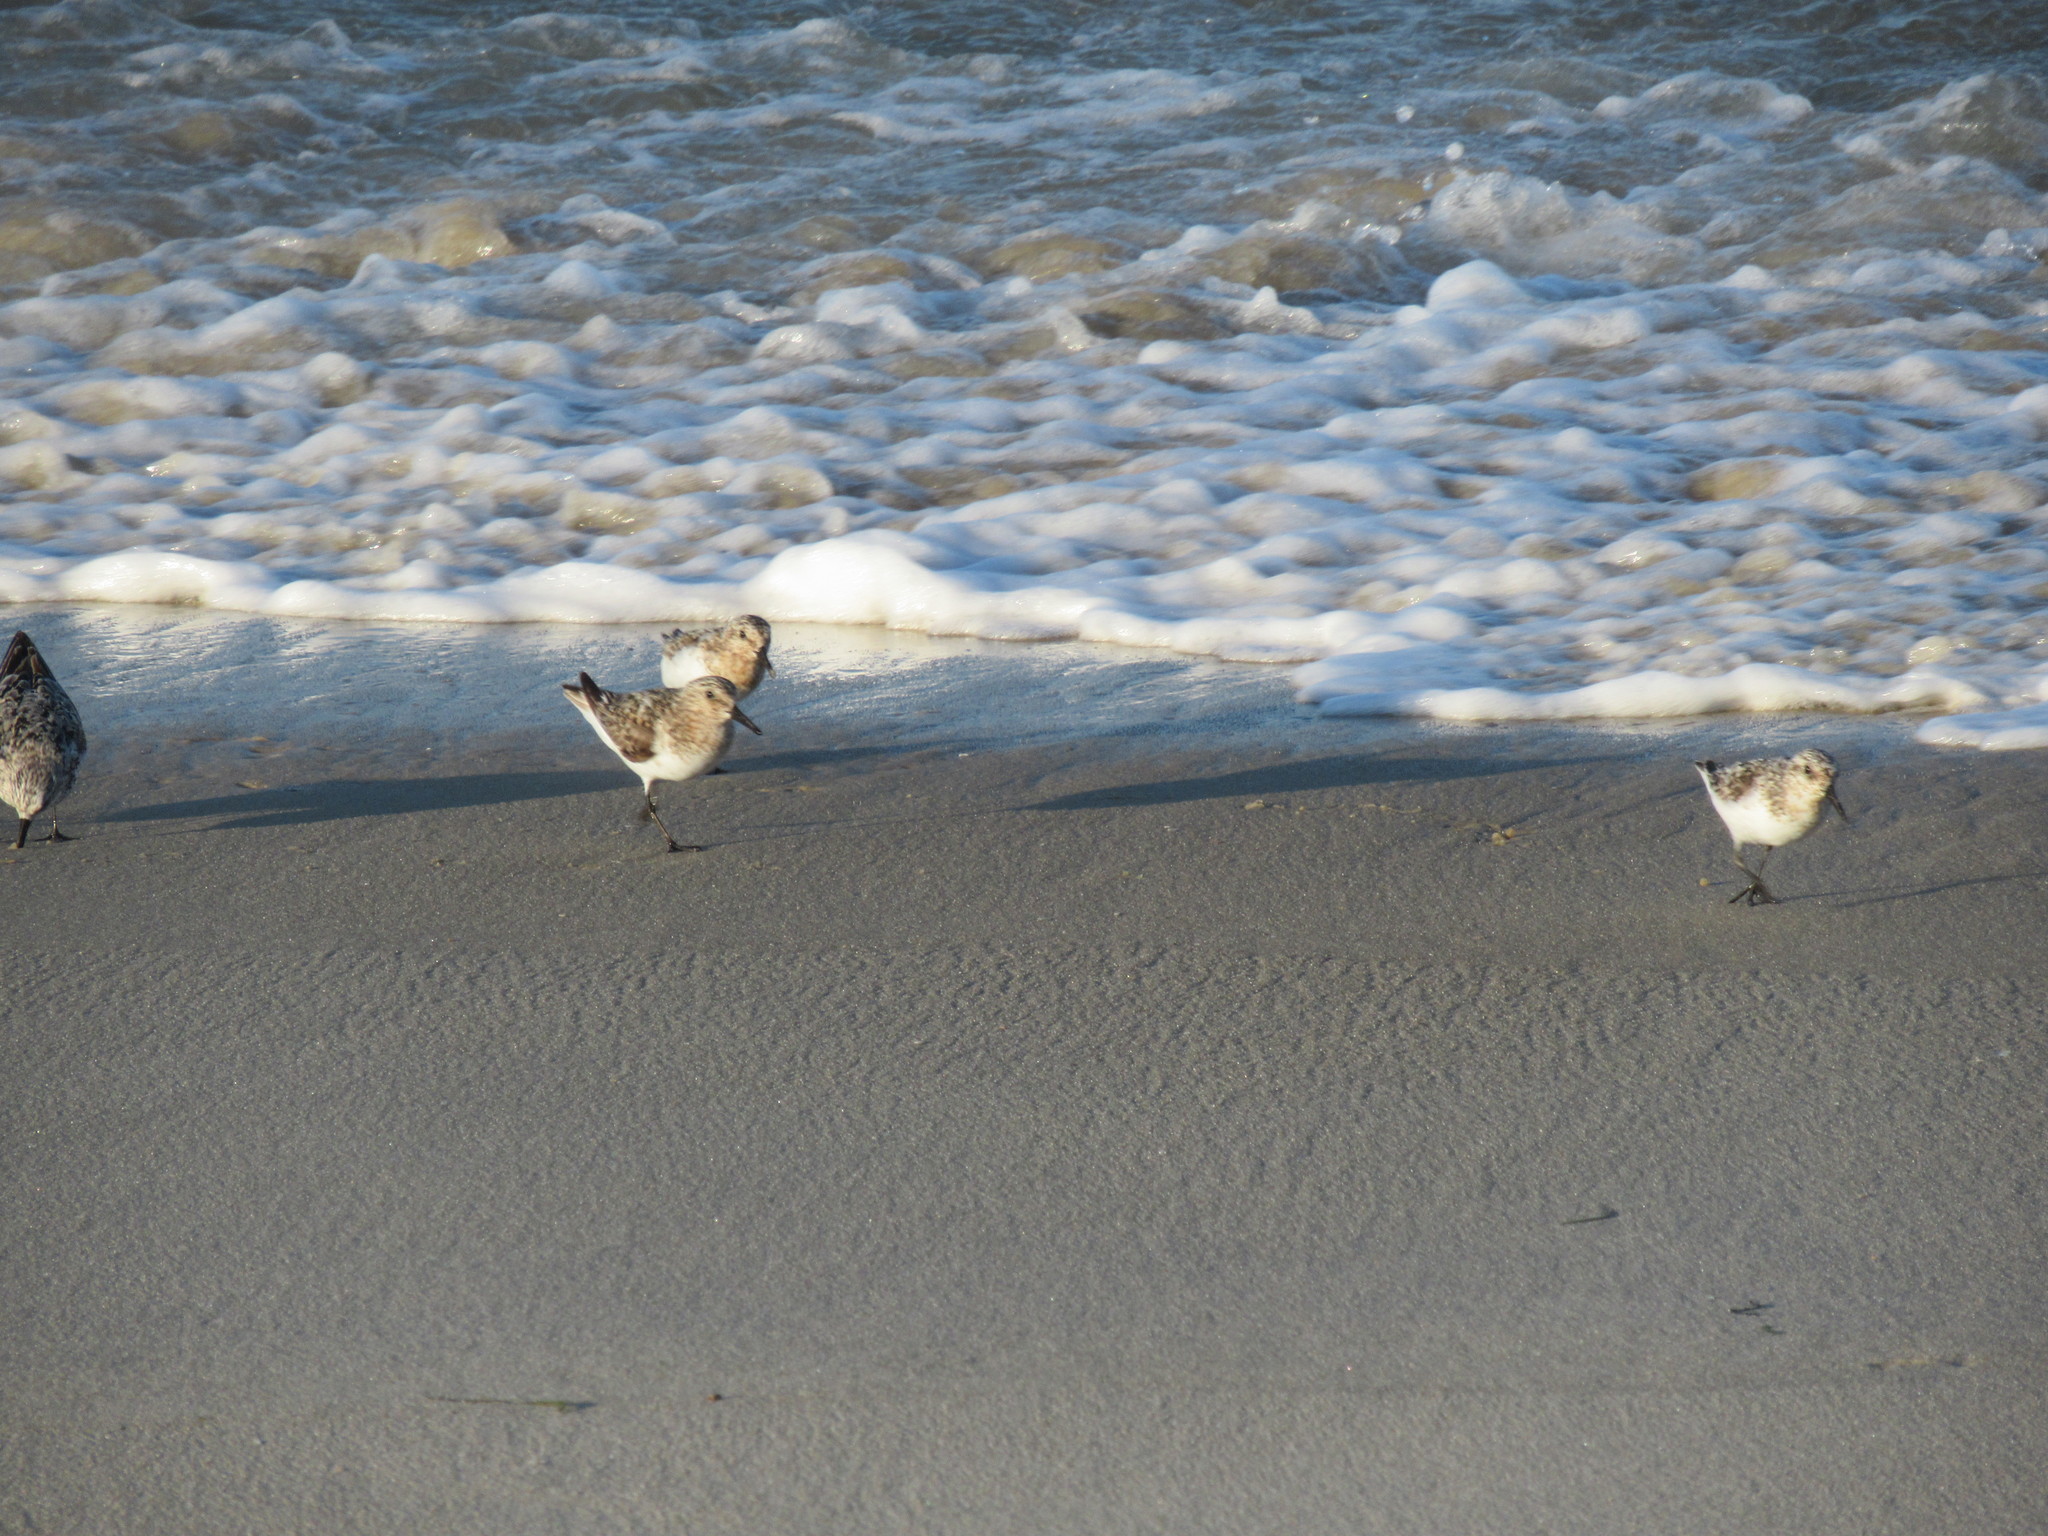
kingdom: Animalia
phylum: Chordata
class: Aves
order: Charadriiformes
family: Scolopacidae
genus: Calidris
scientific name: Calidris alba
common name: Sanderling
